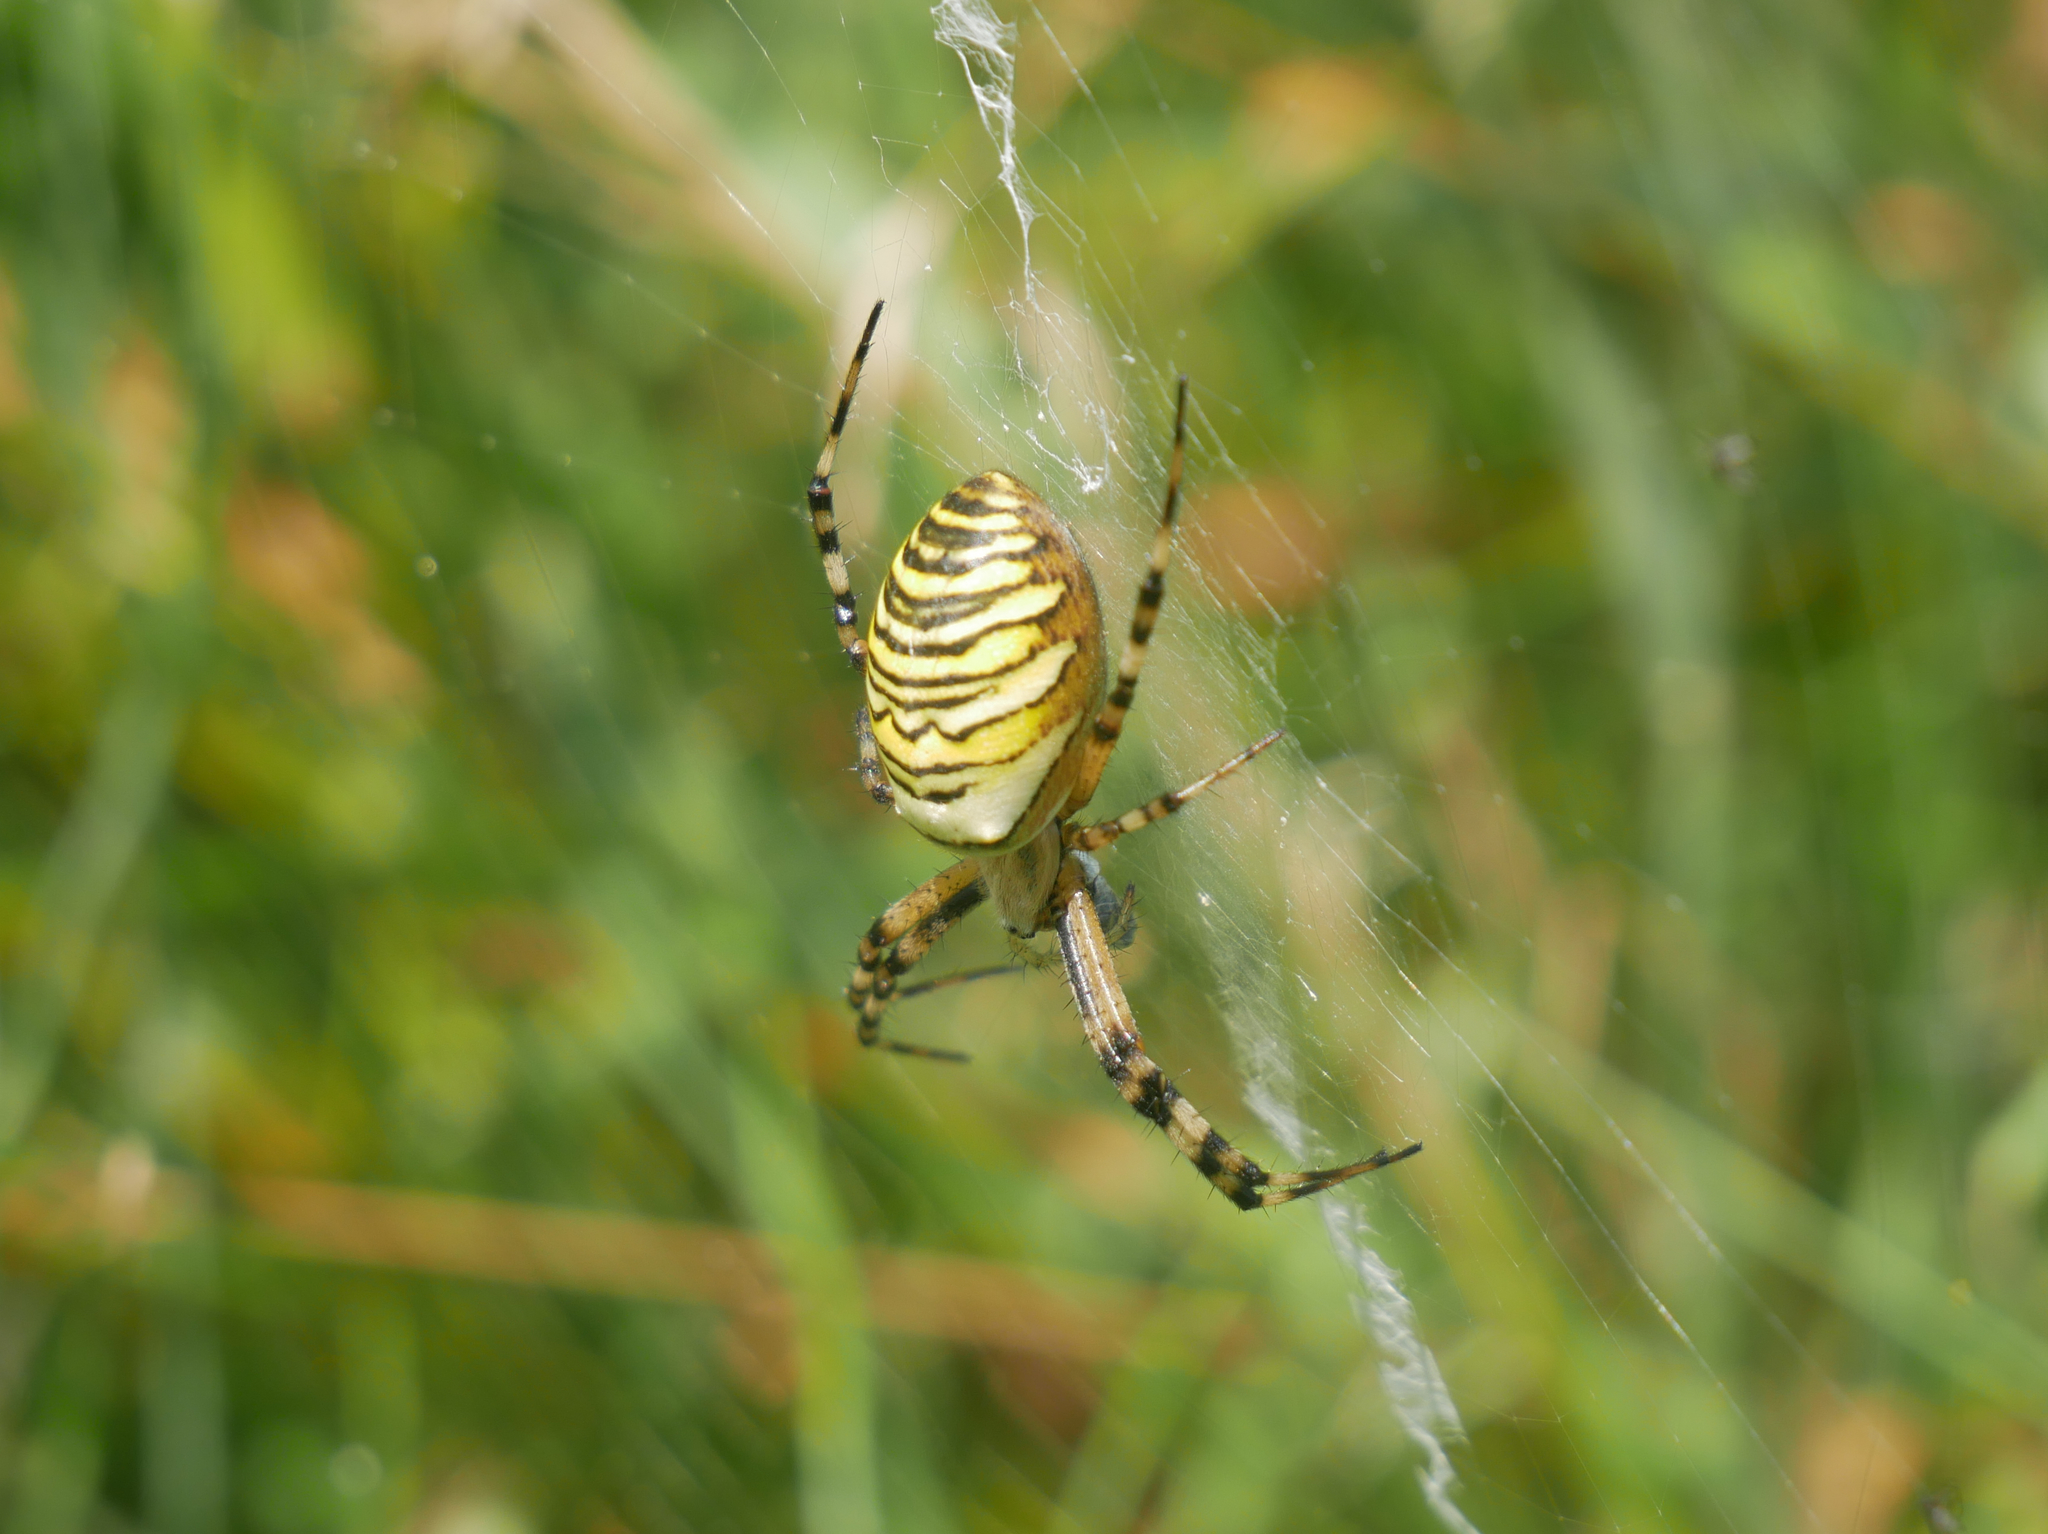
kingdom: Animalia
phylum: Arthropoda
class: Arachnida
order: Araneae
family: Araneidae
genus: Argiope
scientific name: Argiope bruennichi
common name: Wasp spider
